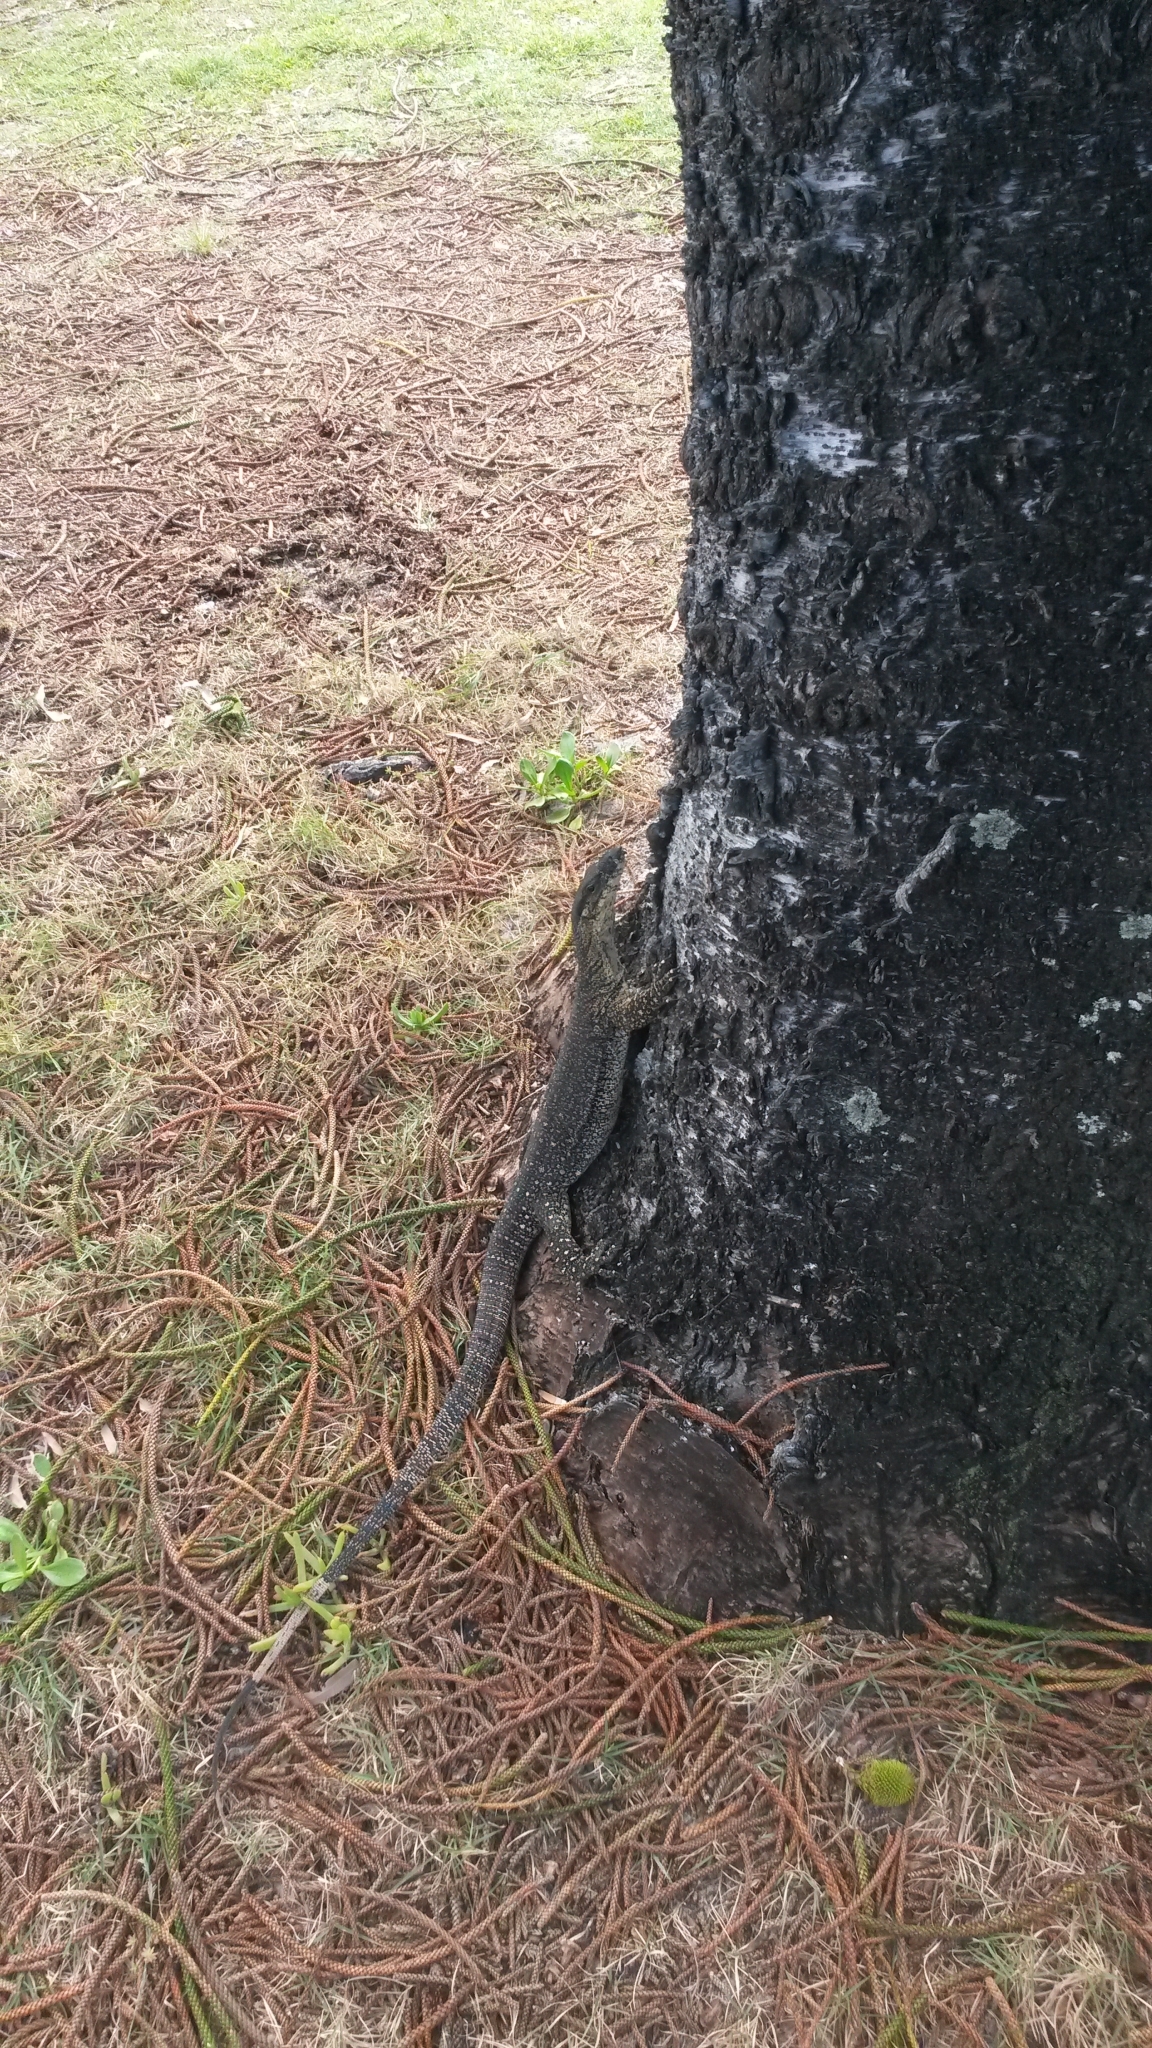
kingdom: Animalia
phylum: Chordata
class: Squamata
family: Varanidae
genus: Varanus
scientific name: Varanus varius
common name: Lace monitor
